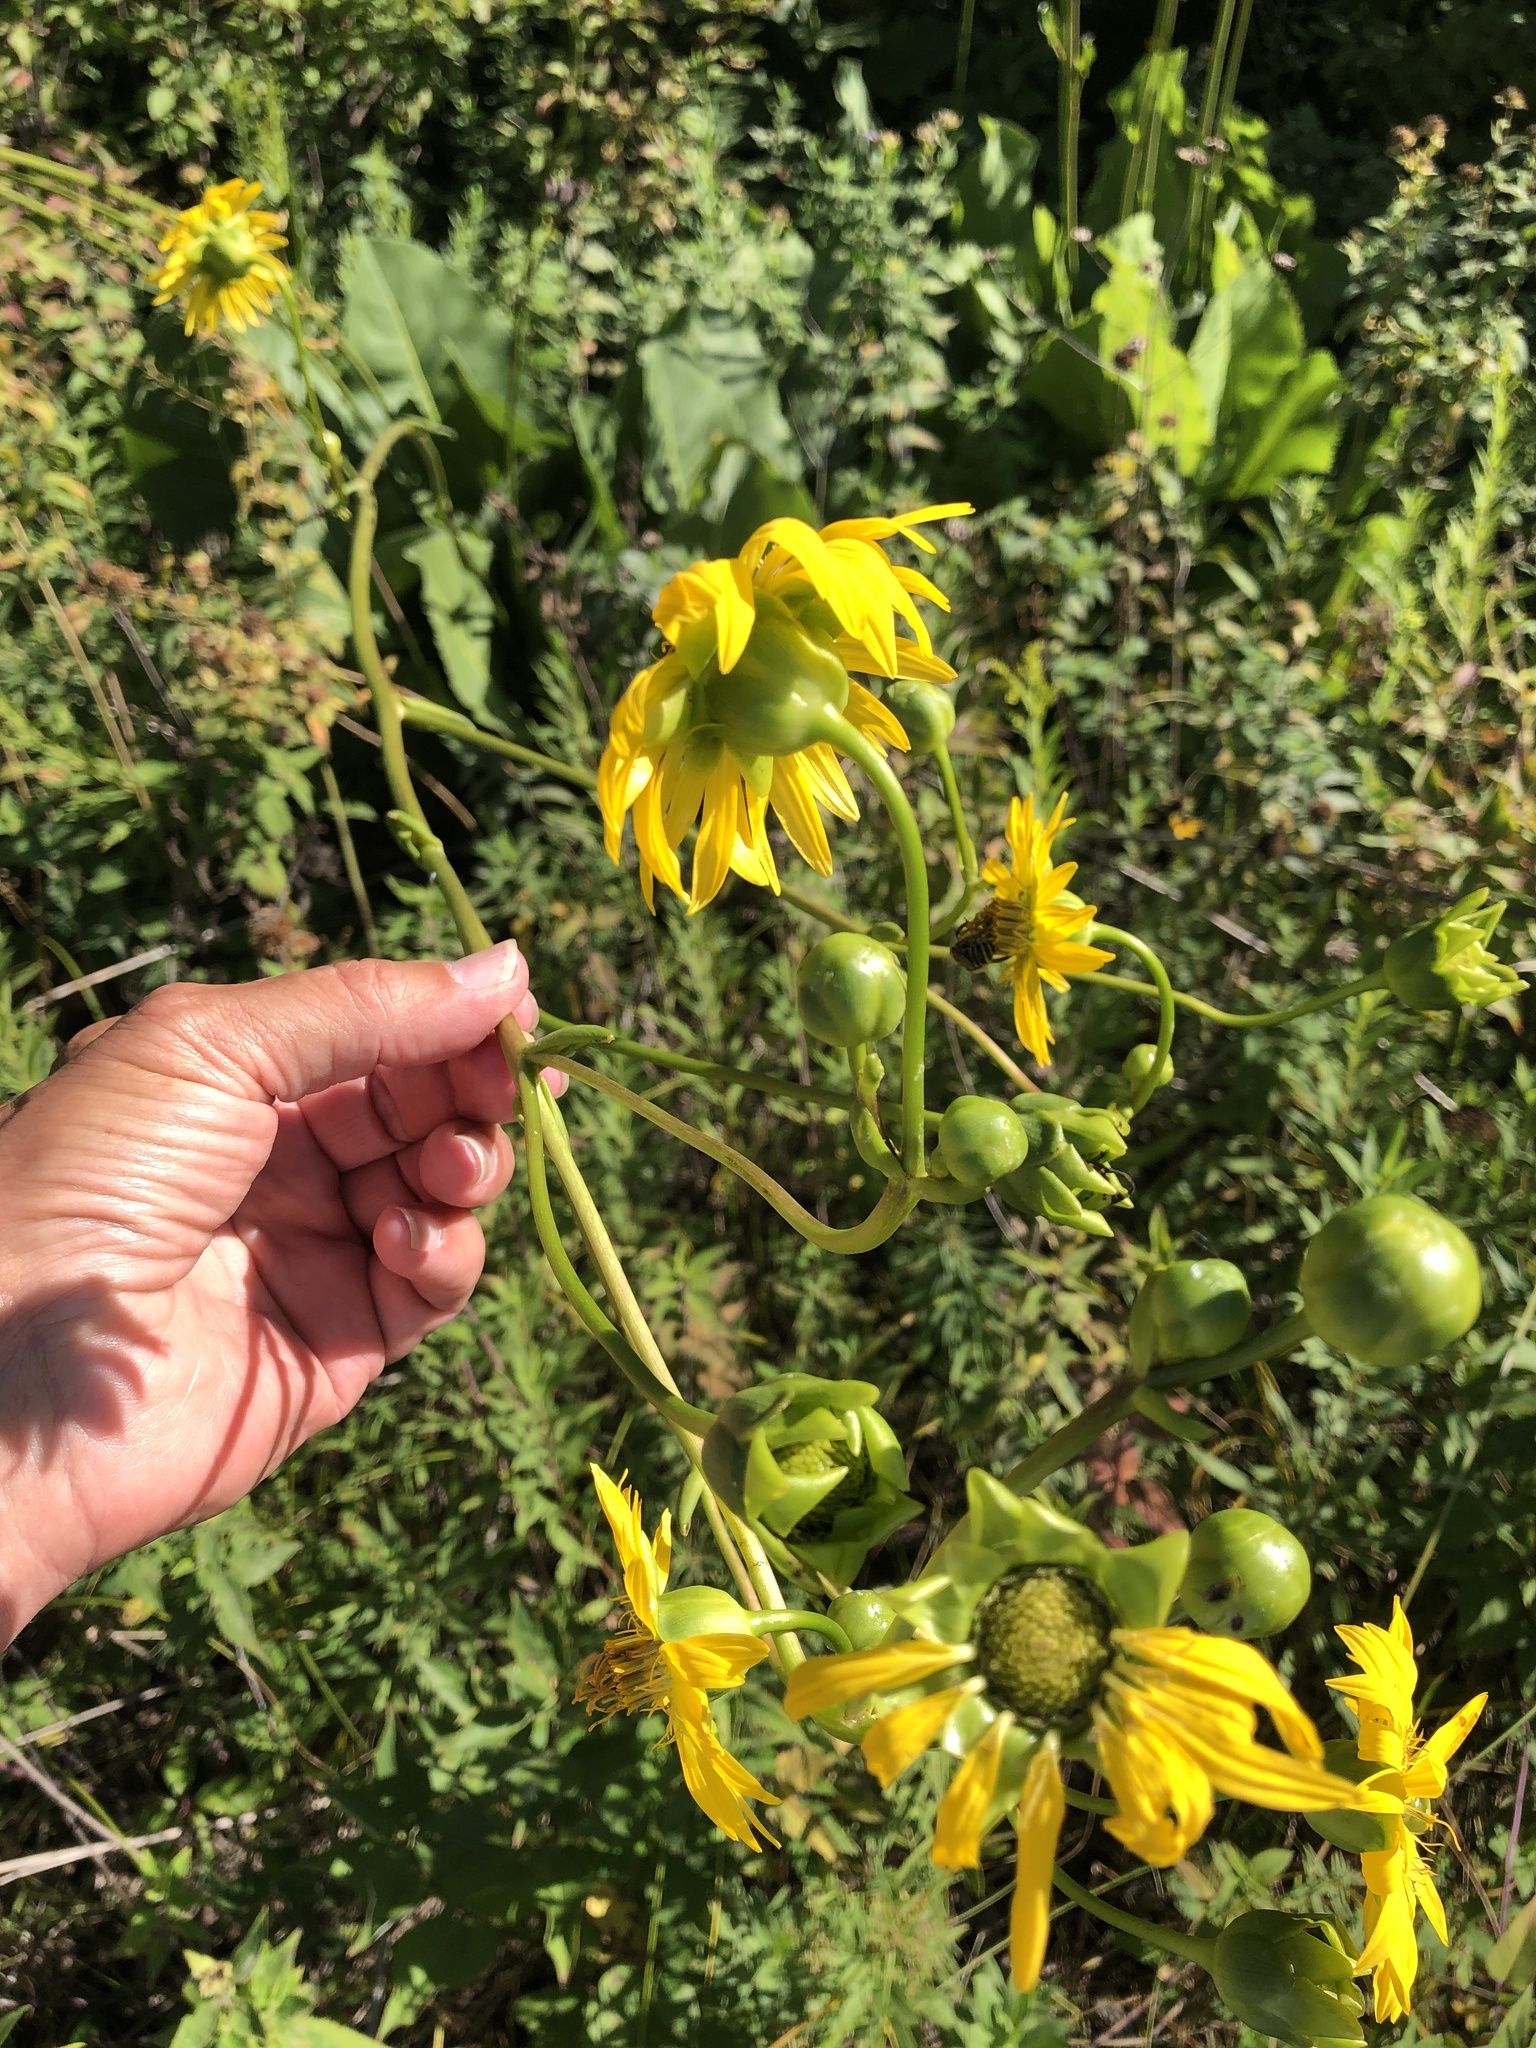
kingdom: Plantae
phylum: Tracheophyta
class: Magnoliopsida
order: Asterales
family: Asteraceae
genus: Silphium
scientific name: Silphium terebinthinaceum
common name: Basal-leaf rosinweed
